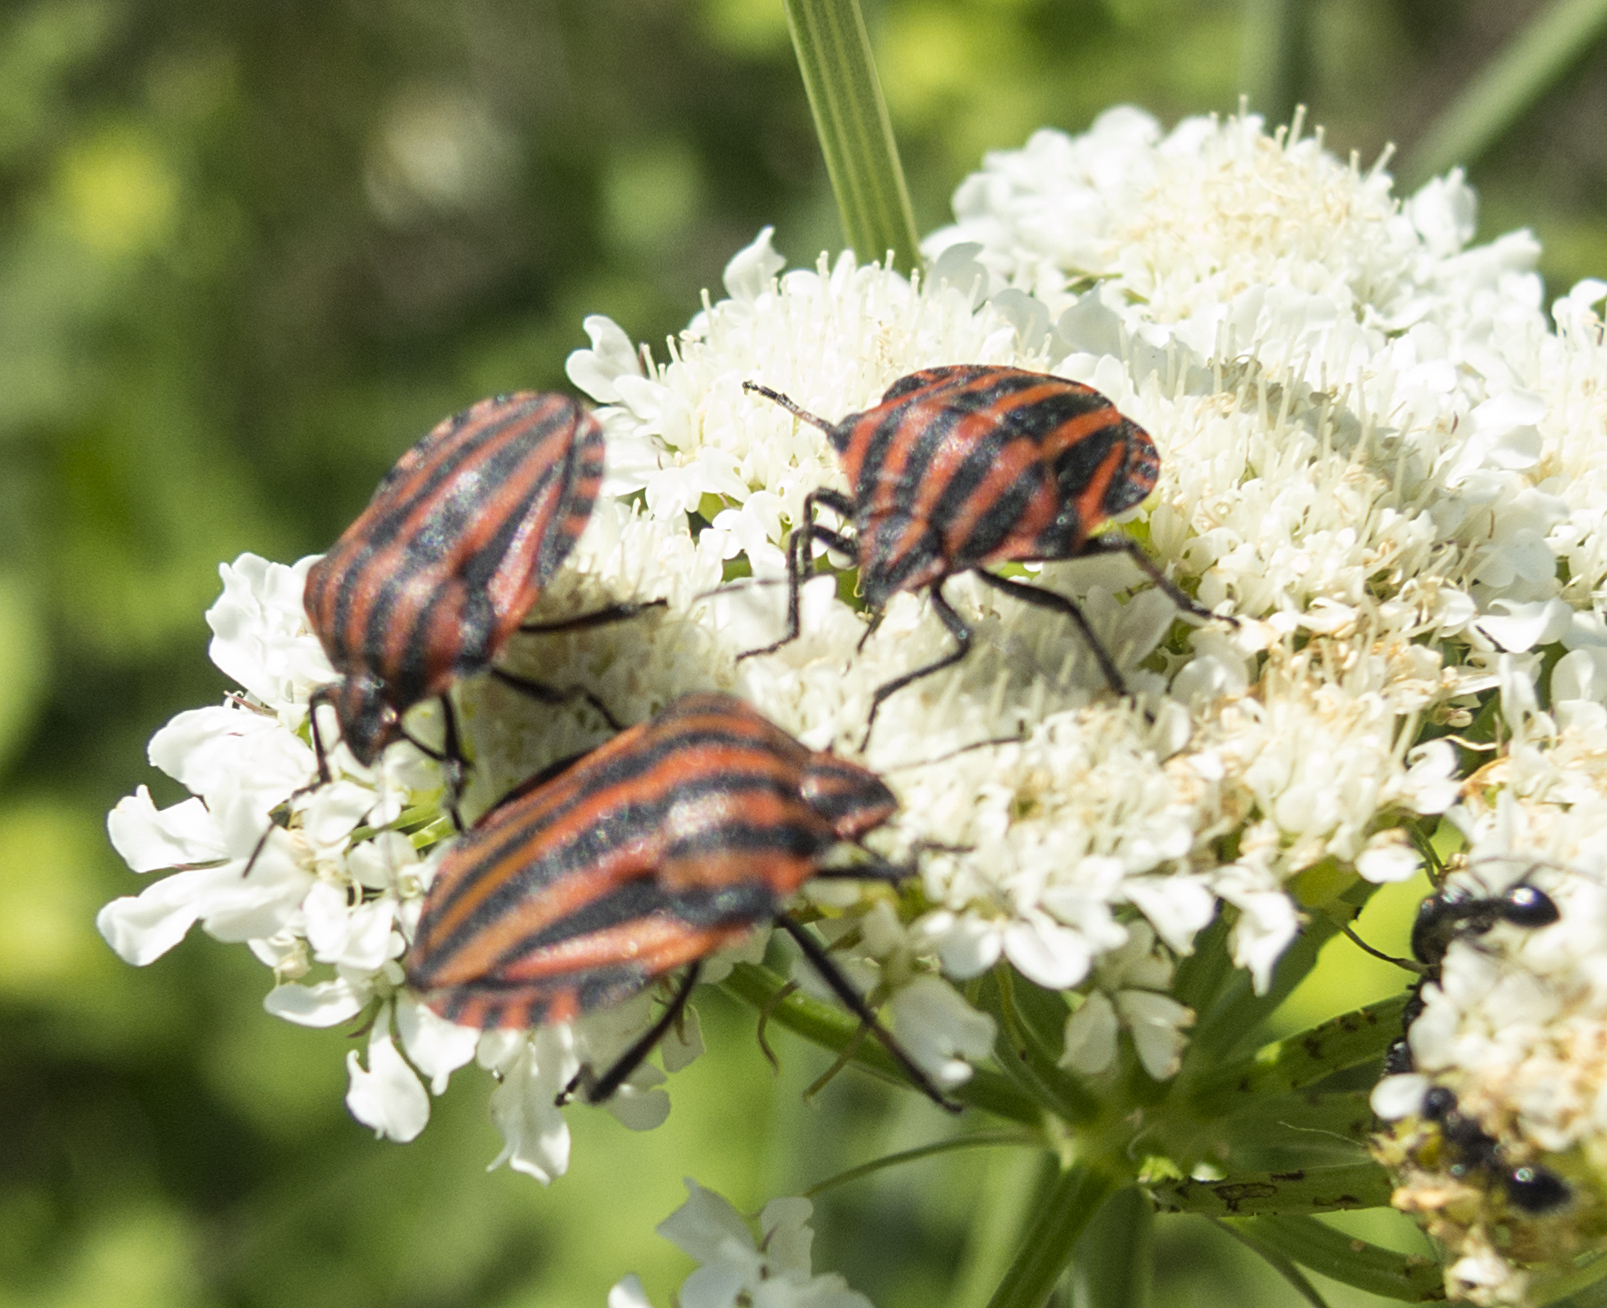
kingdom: Animalia
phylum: Arthropoda
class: Insecta
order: Hemiptera
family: Pentatomidae
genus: Graphosoma
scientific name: Graphosoma italicum
